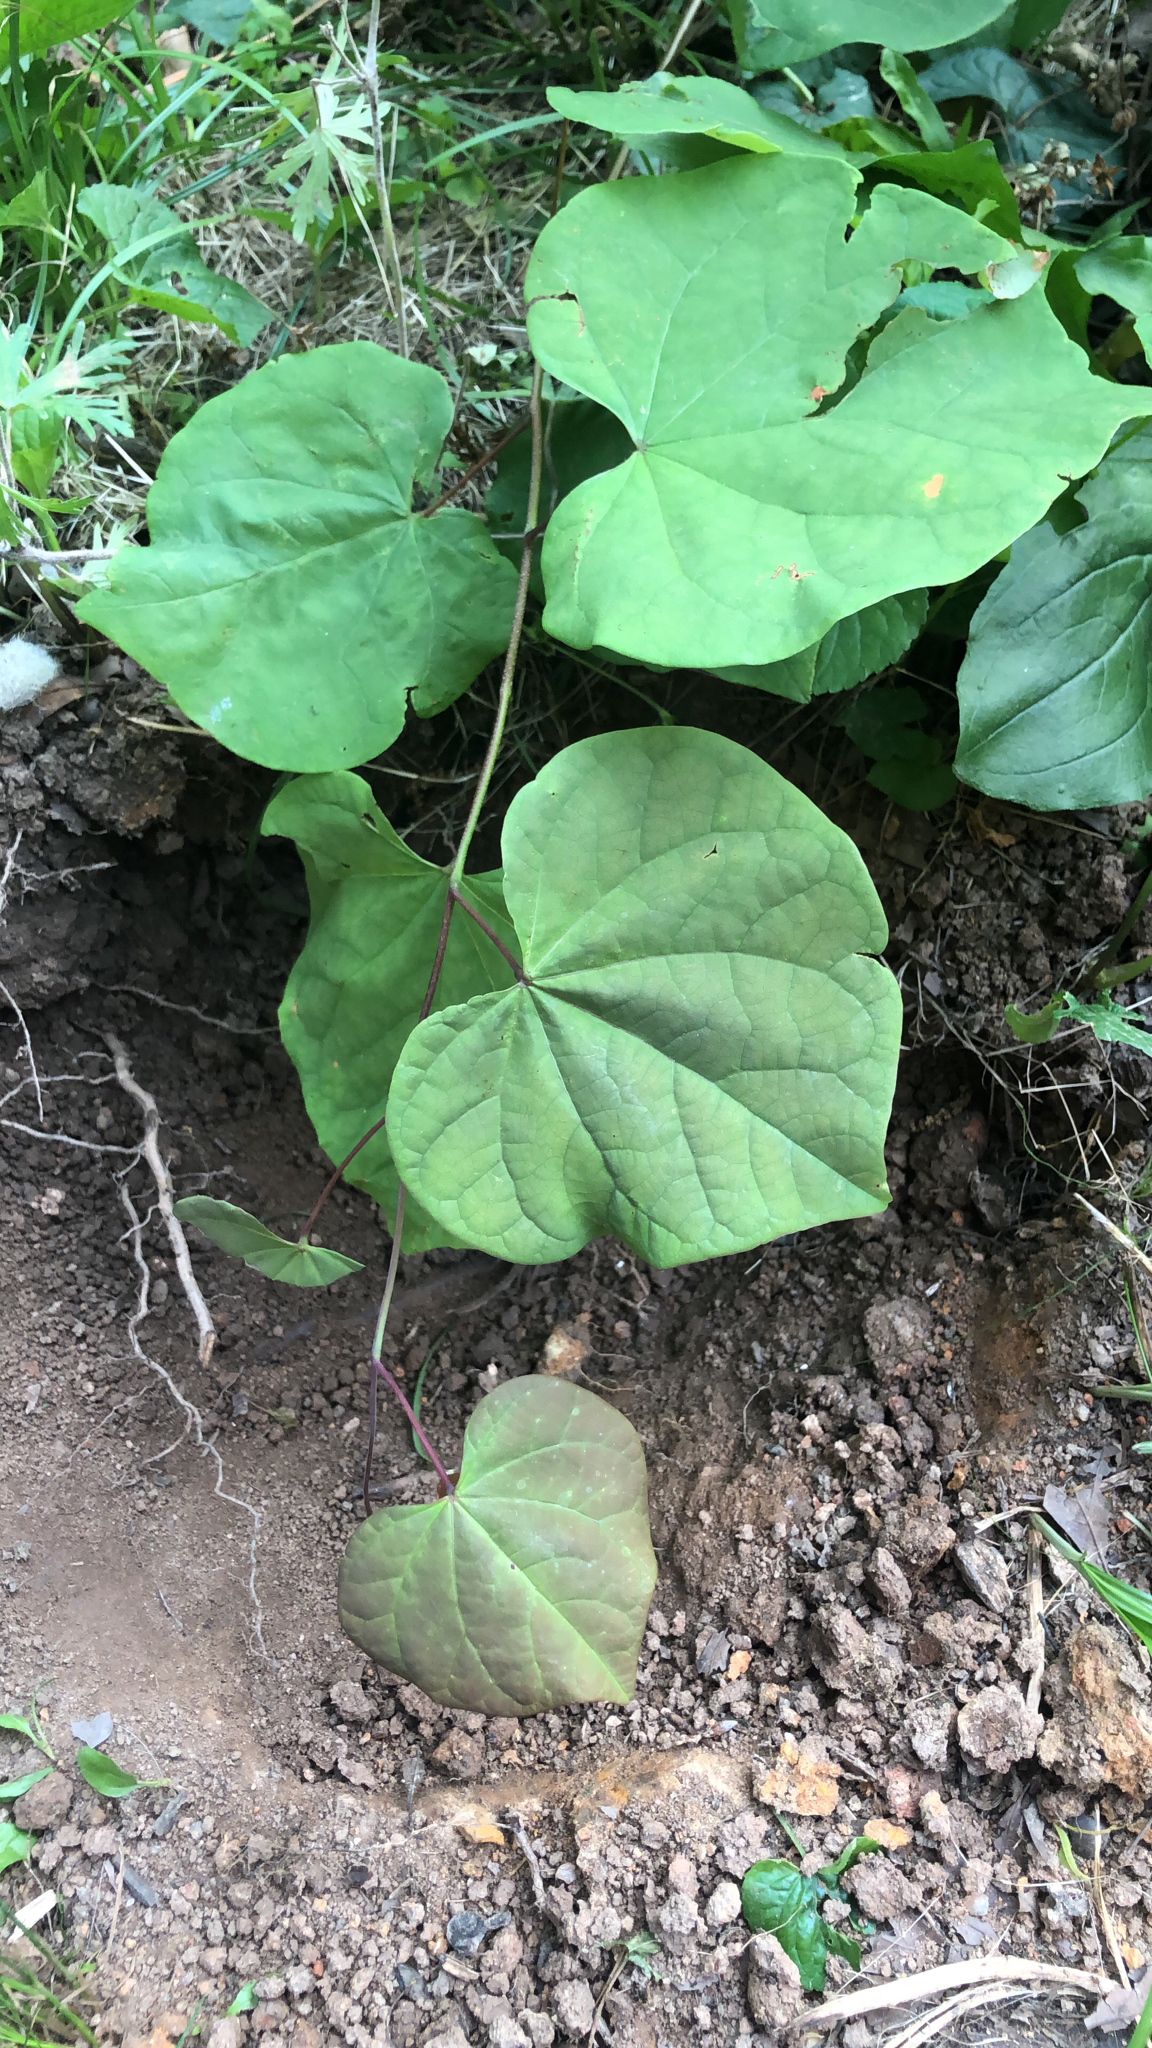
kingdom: Plantae
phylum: Tracheophyta
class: Magnoliopsida
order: Fabales
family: Fabaceae
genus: Cercis
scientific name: Cercis canadensis
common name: Eastern redbud
